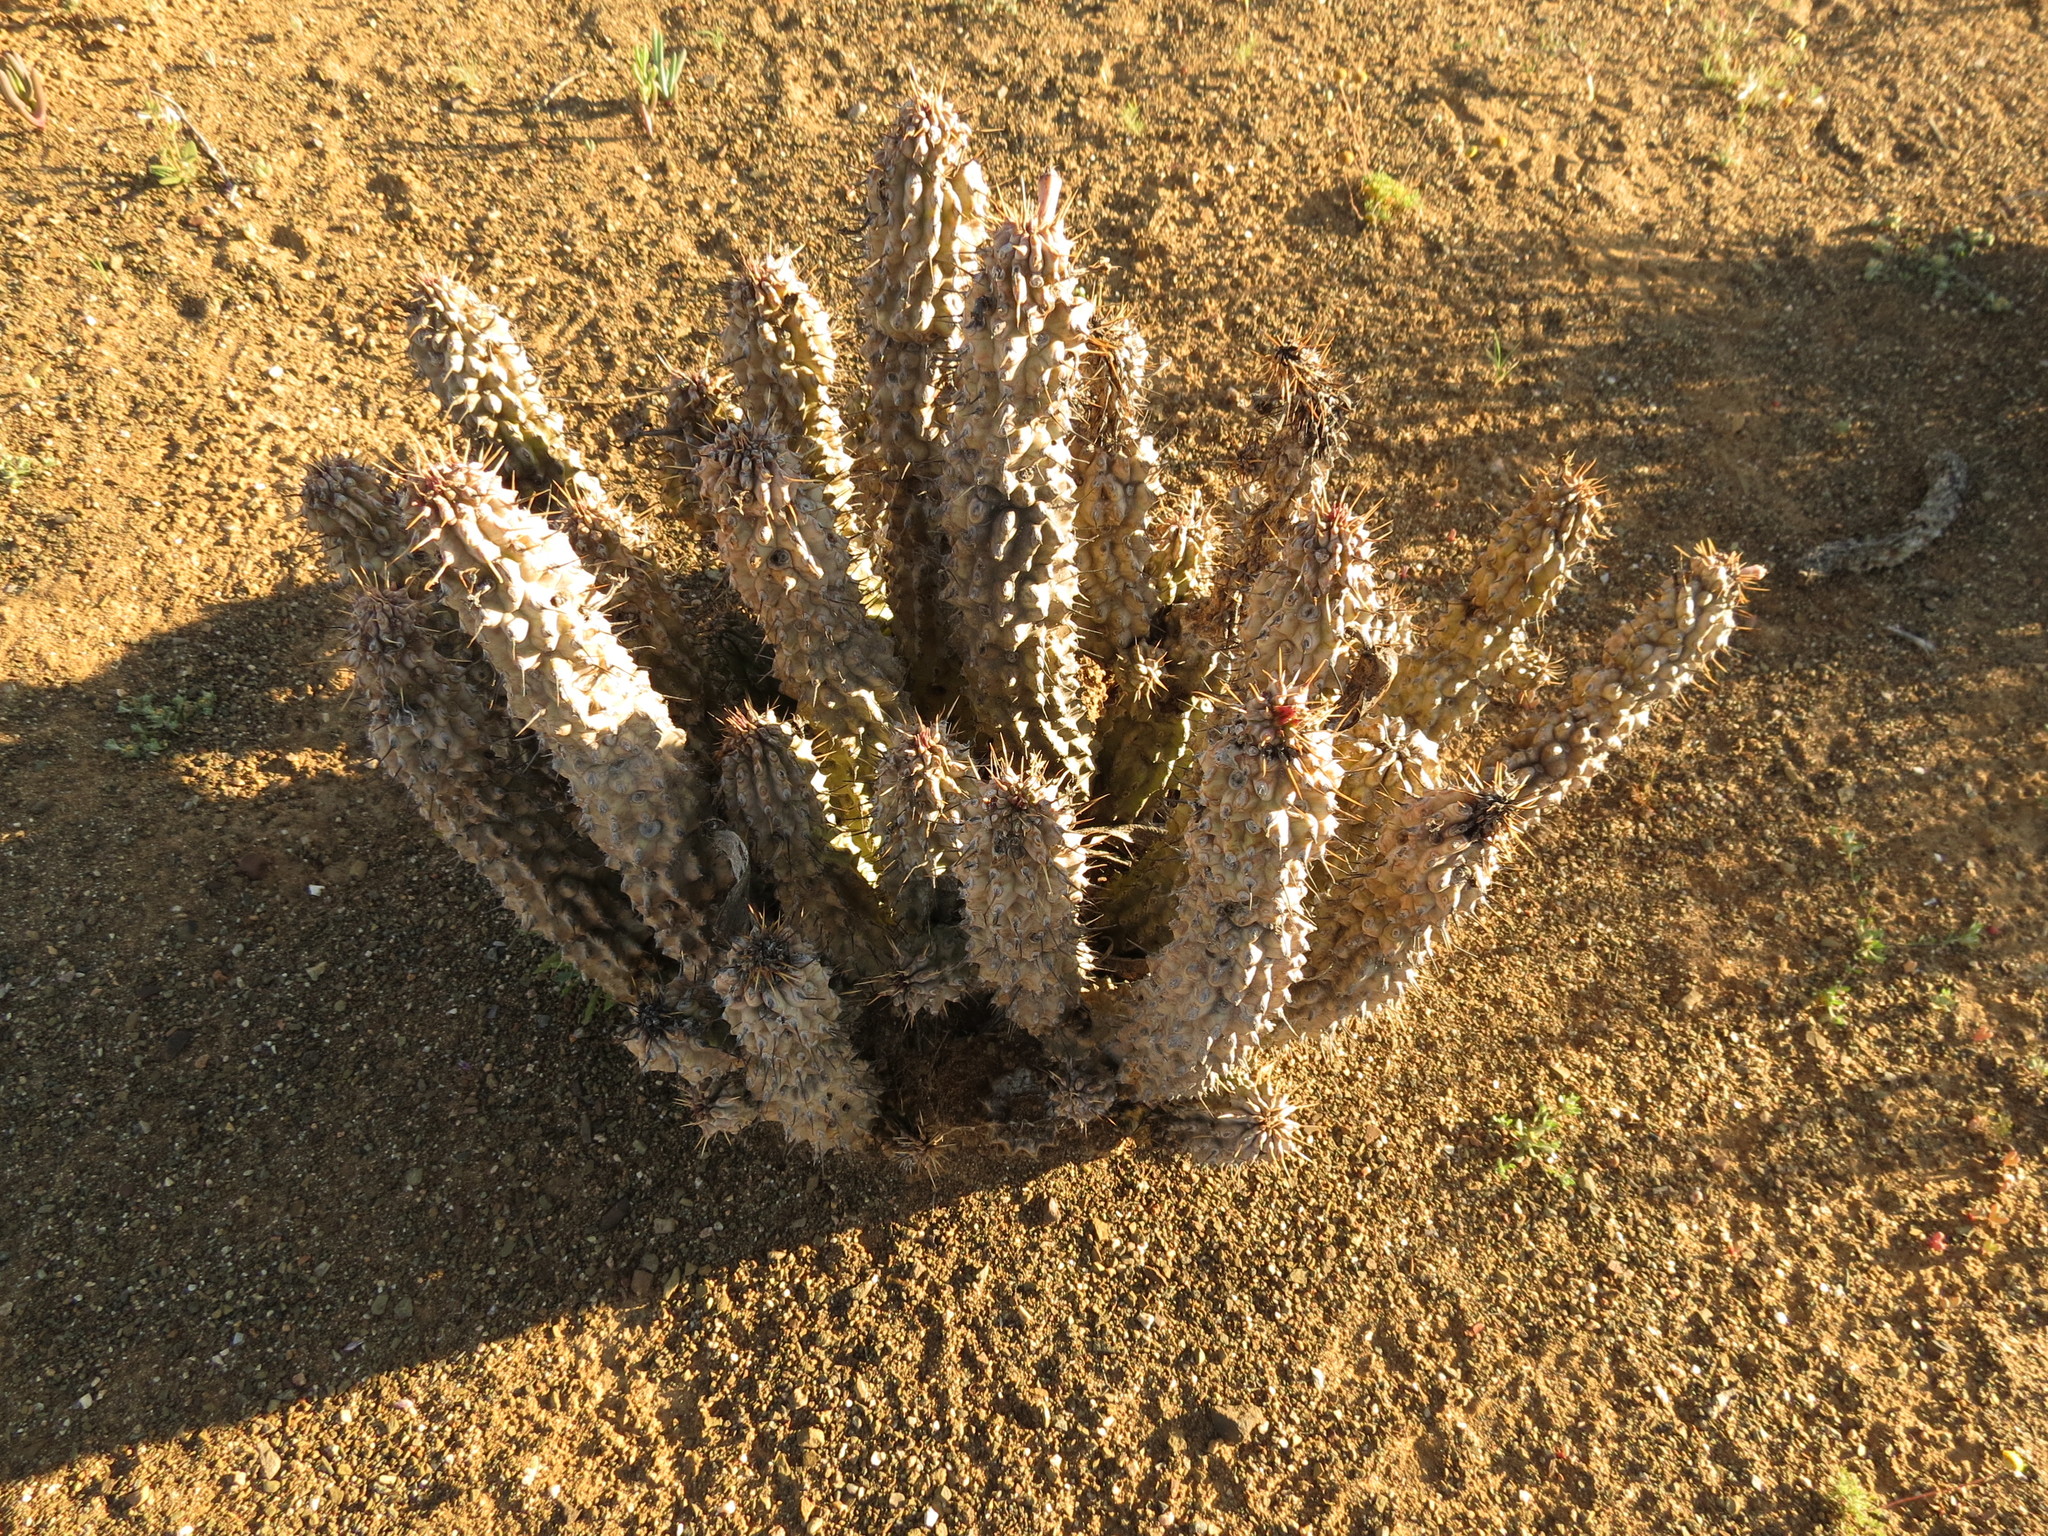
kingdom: Plantae
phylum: Tracheophyta
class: Magnoliopsida
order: Gentianales
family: Apocynaceae
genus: Hoodia
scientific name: Hoodia gordonii
